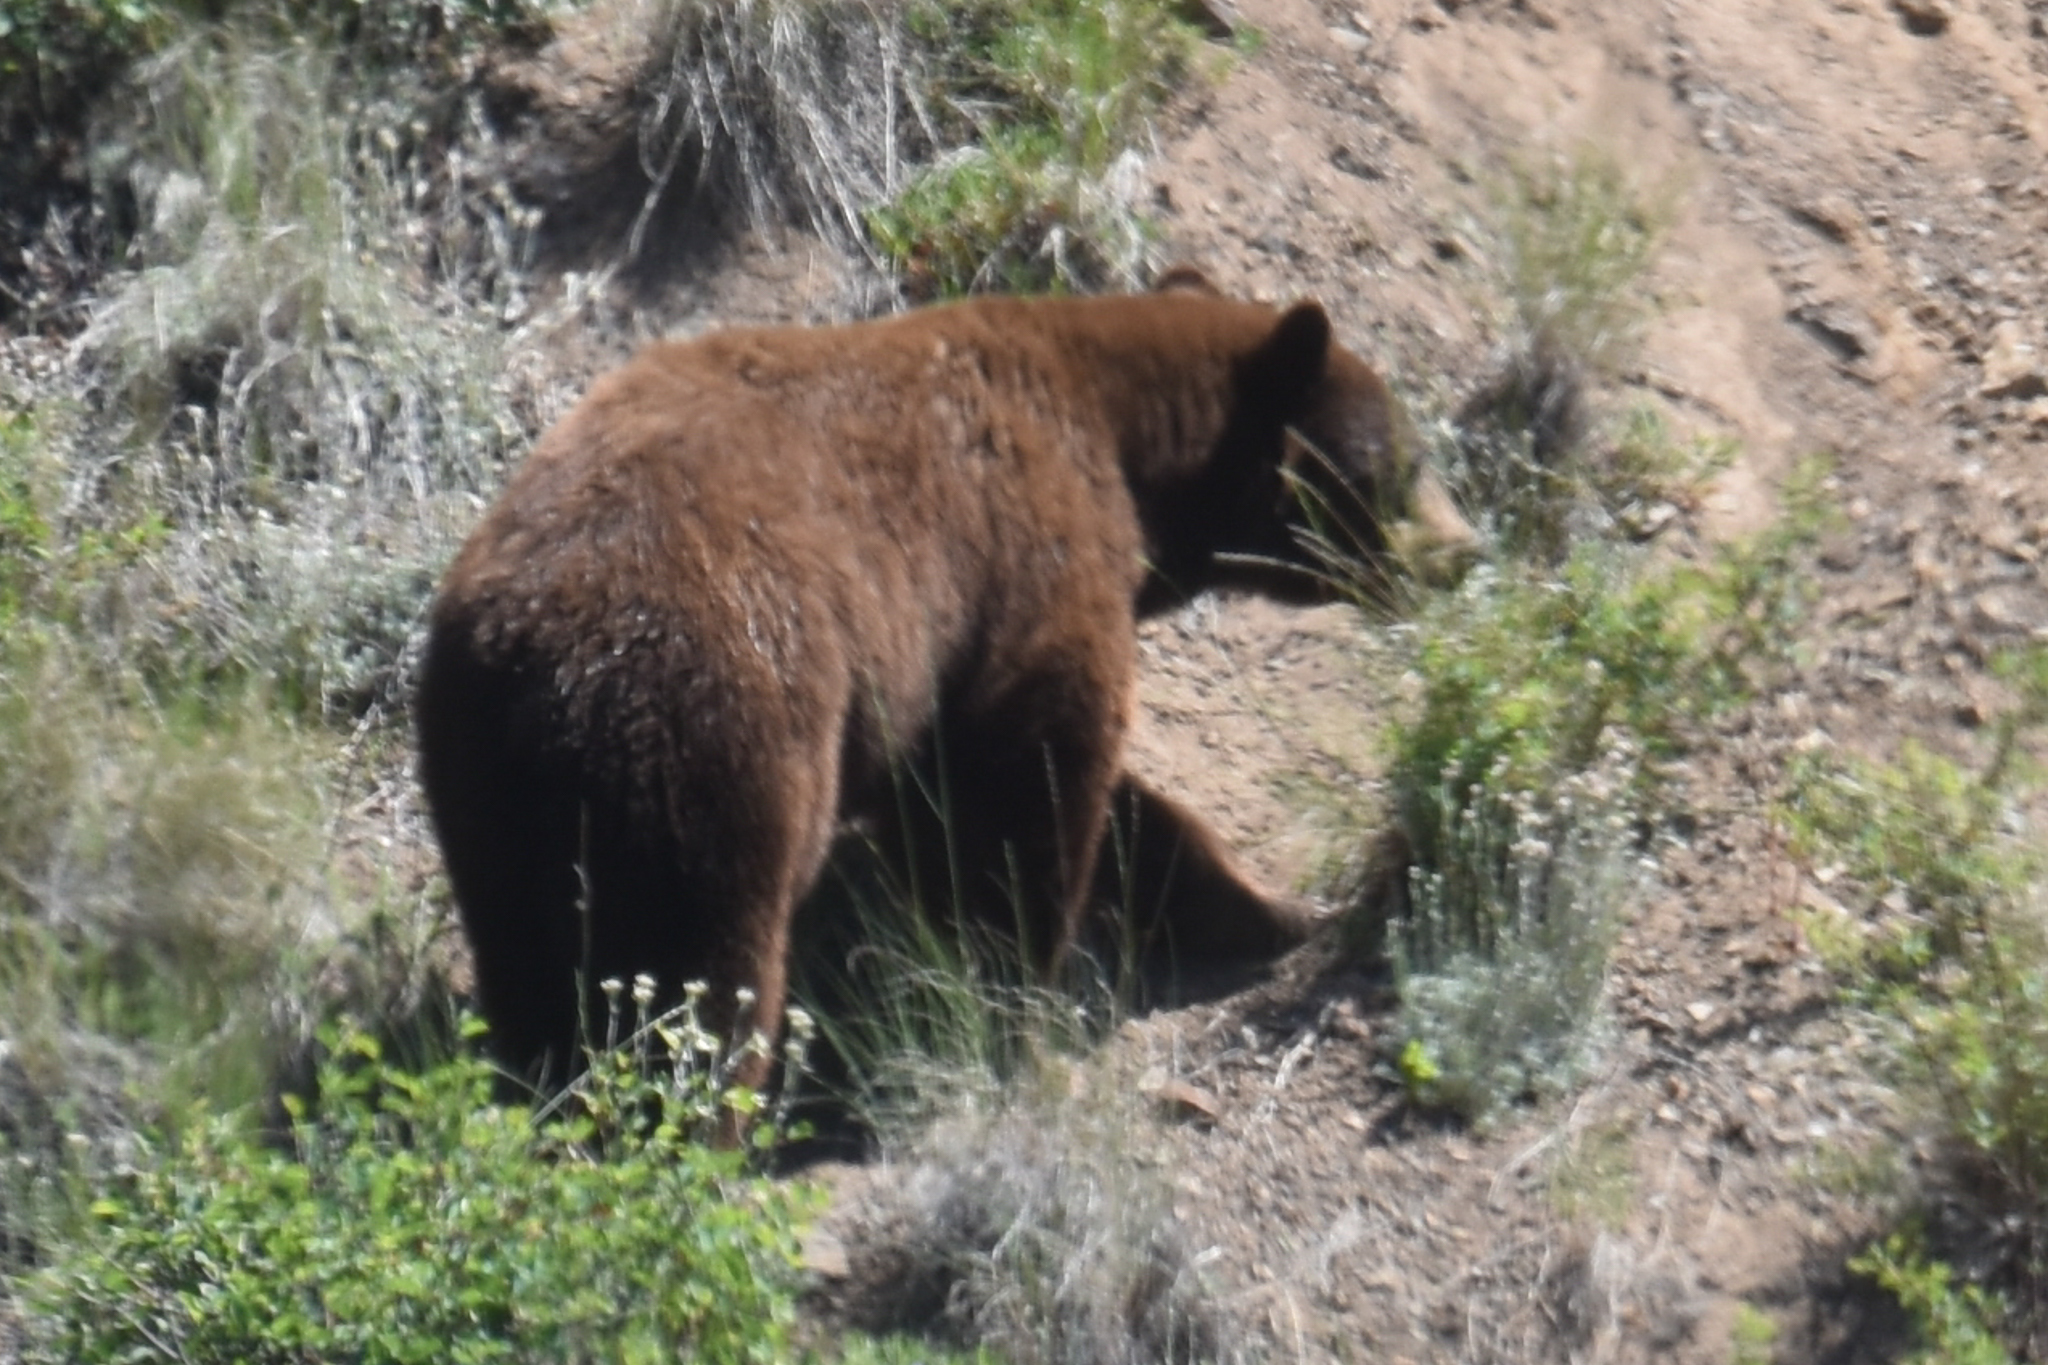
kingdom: Animalia
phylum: Chordata
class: Mammalia
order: Carnivora
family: Ursidae
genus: Ursus
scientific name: Ursus americanus
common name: American black bear
